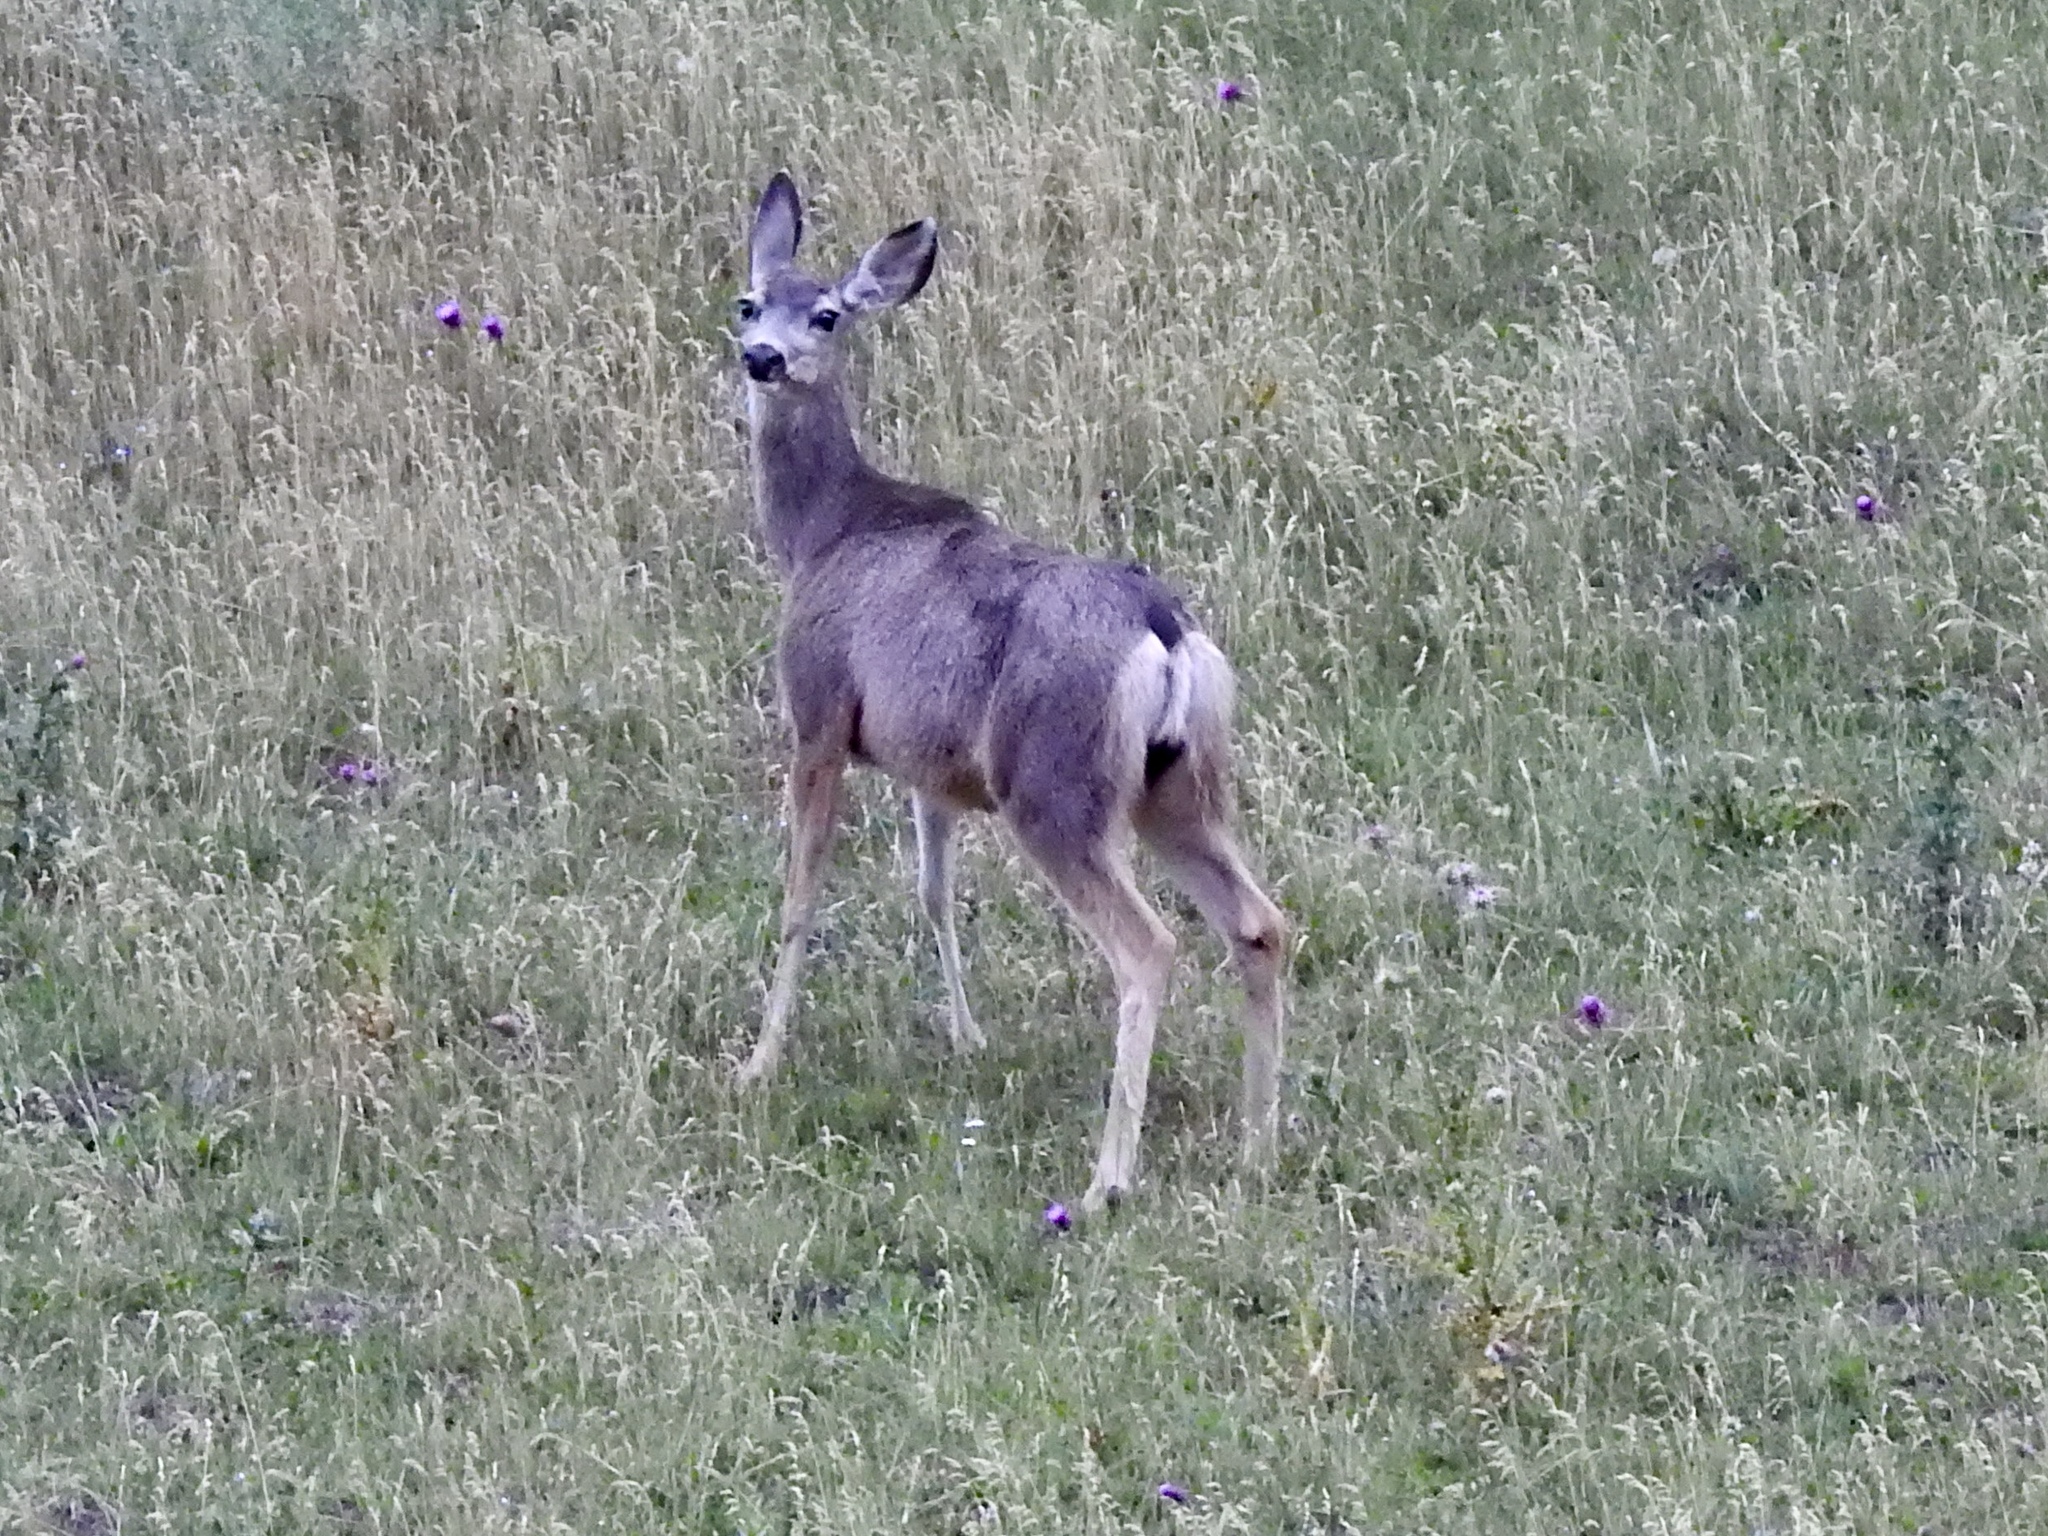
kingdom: Animalia
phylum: Chordata
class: Mammalia
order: Artiodactyla
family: Cervidae
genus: Odocoileus
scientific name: Odocoileus hemionus
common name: Mule deer
